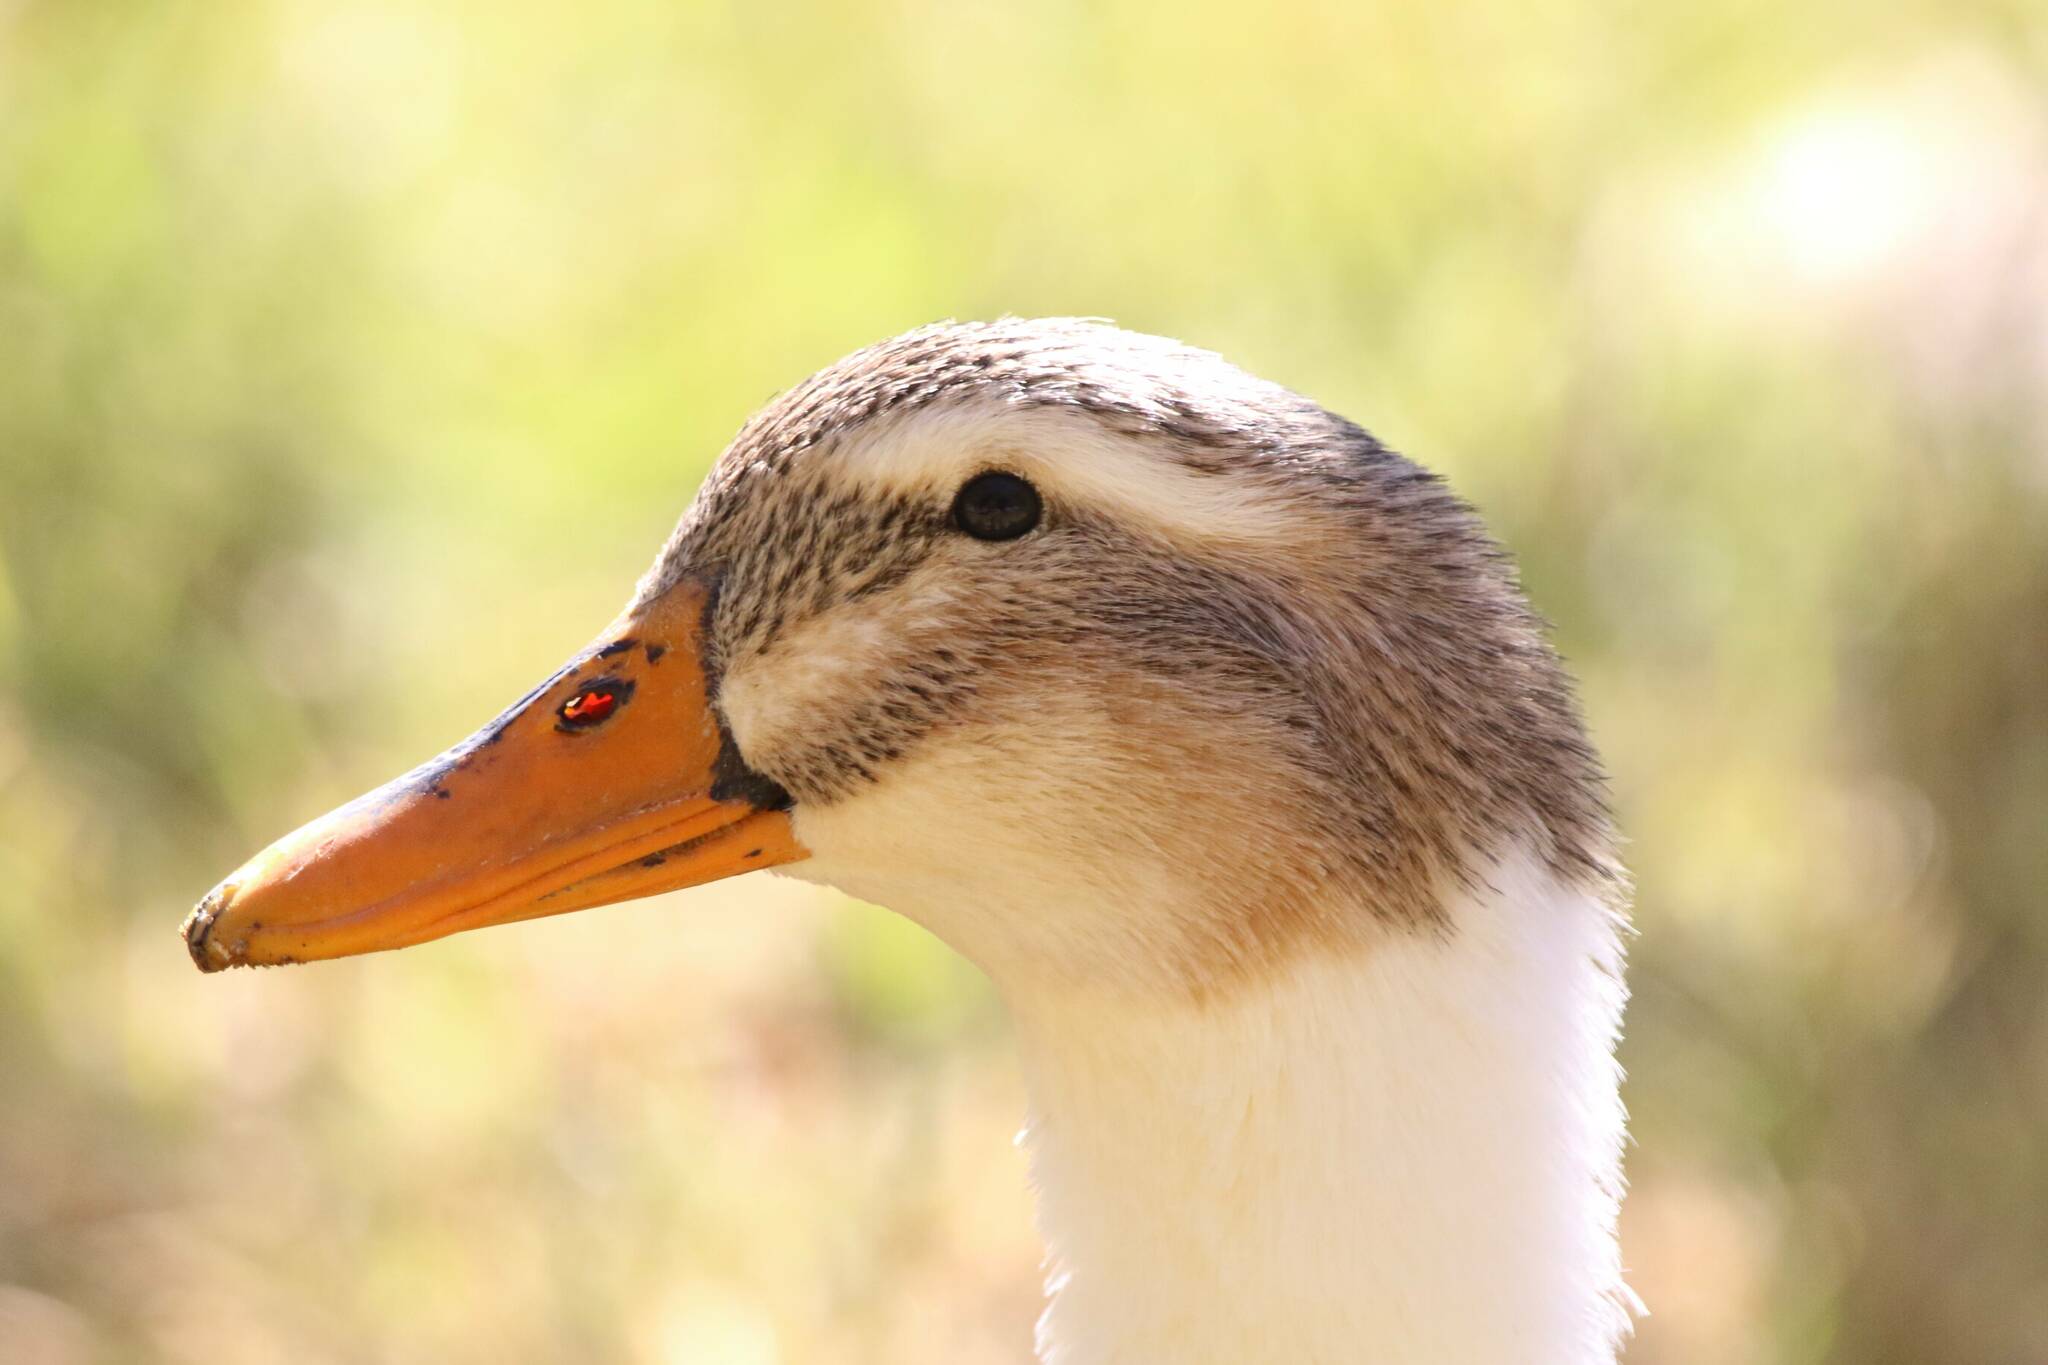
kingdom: Animalia
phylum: Chordata
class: Aves
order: Anseriformes
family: Anatidae
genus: Anas
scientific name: Anas platyrhynchos
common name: Mallard
